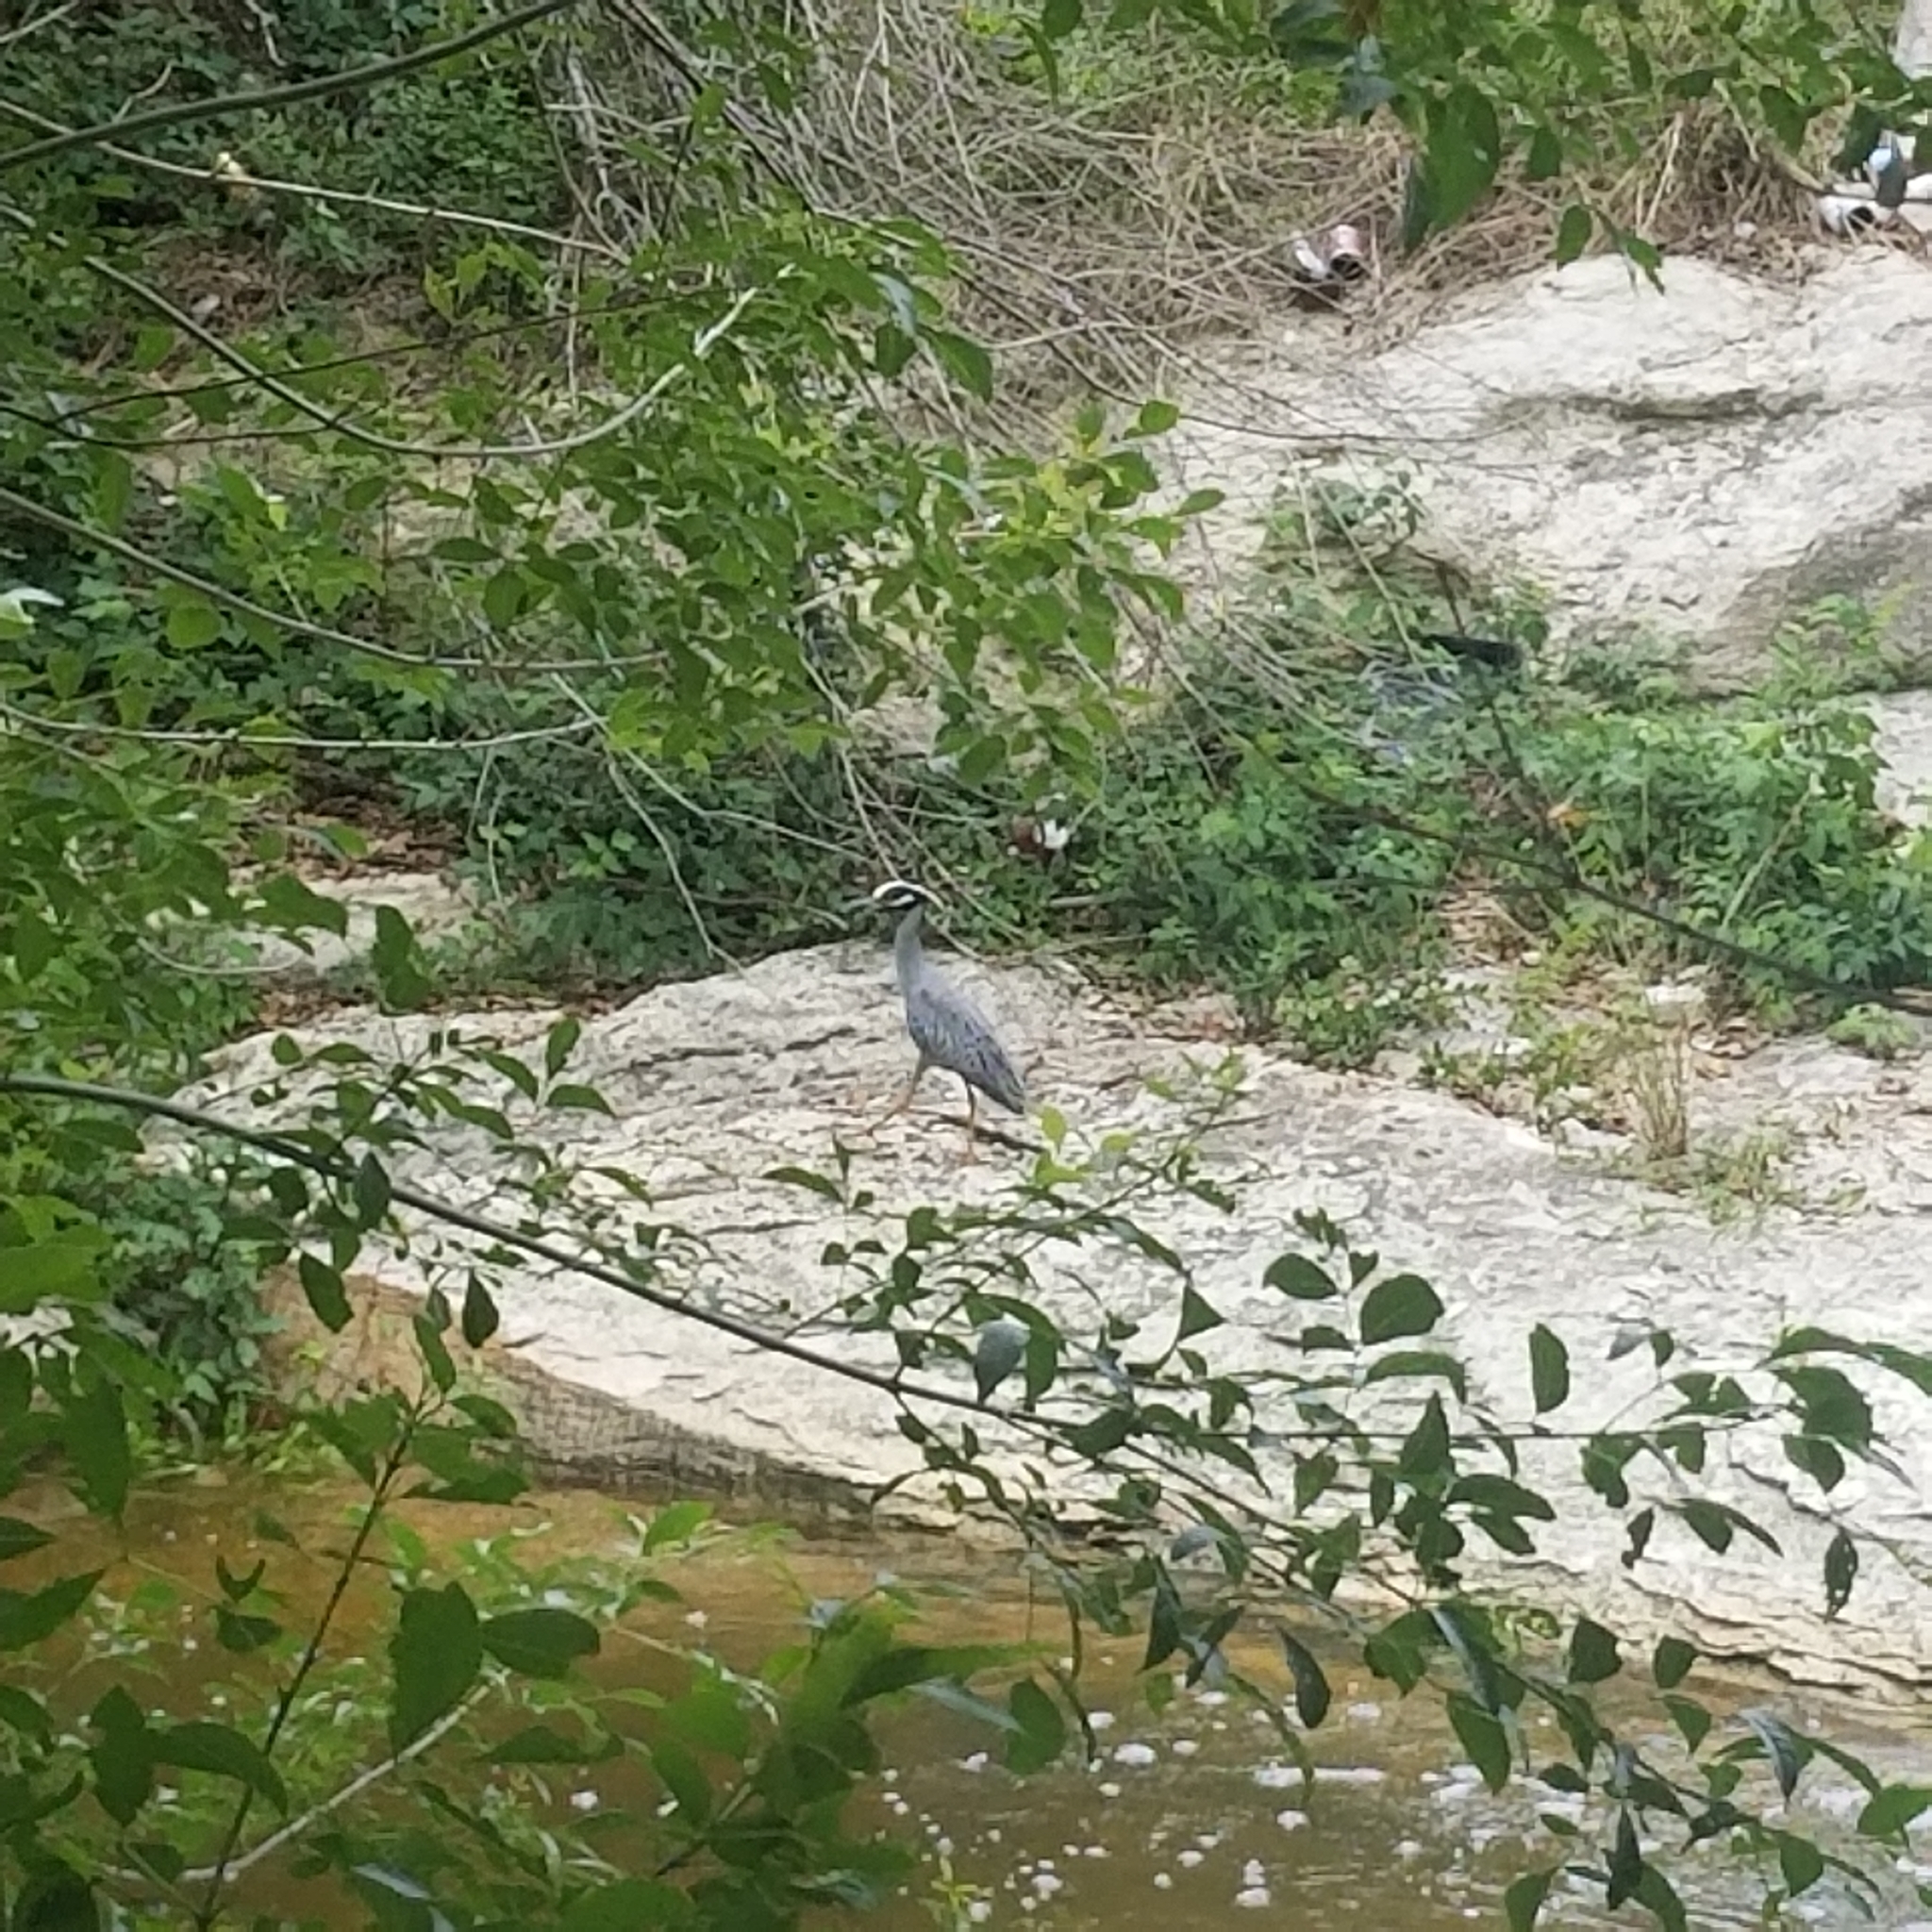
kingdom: Animalia
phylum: Chordata
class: Aves
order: Pelecaniformes
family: Ardeidae
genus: Nyctanassa
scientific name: Nyctanassa violacea
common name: Yellow-crowned night heron
